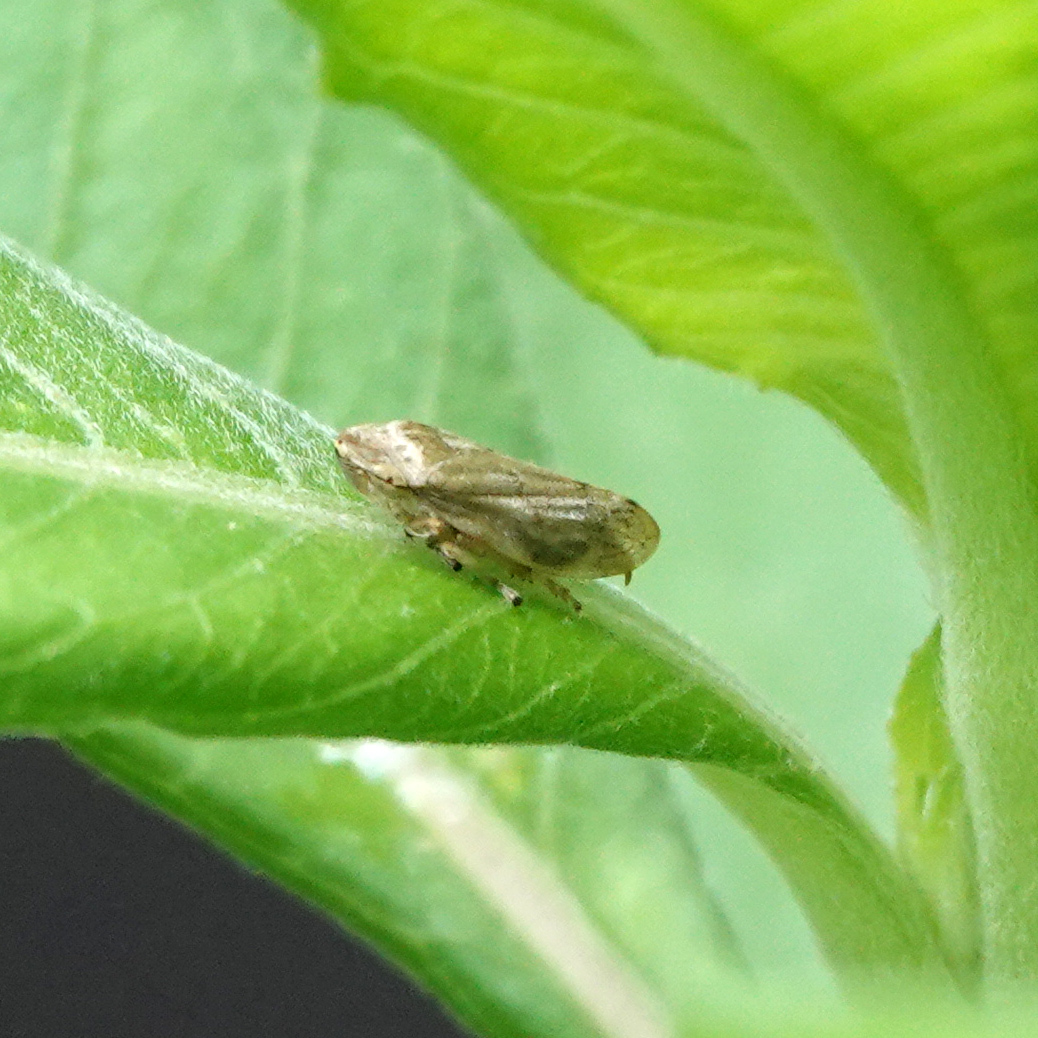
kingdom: Animalia
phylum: Arthropoda
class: Insecta
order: Hemiptera
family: Aphrophoridae
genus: Philaenus
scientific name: Philaenus spumarius
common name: Meadow spittlebug
